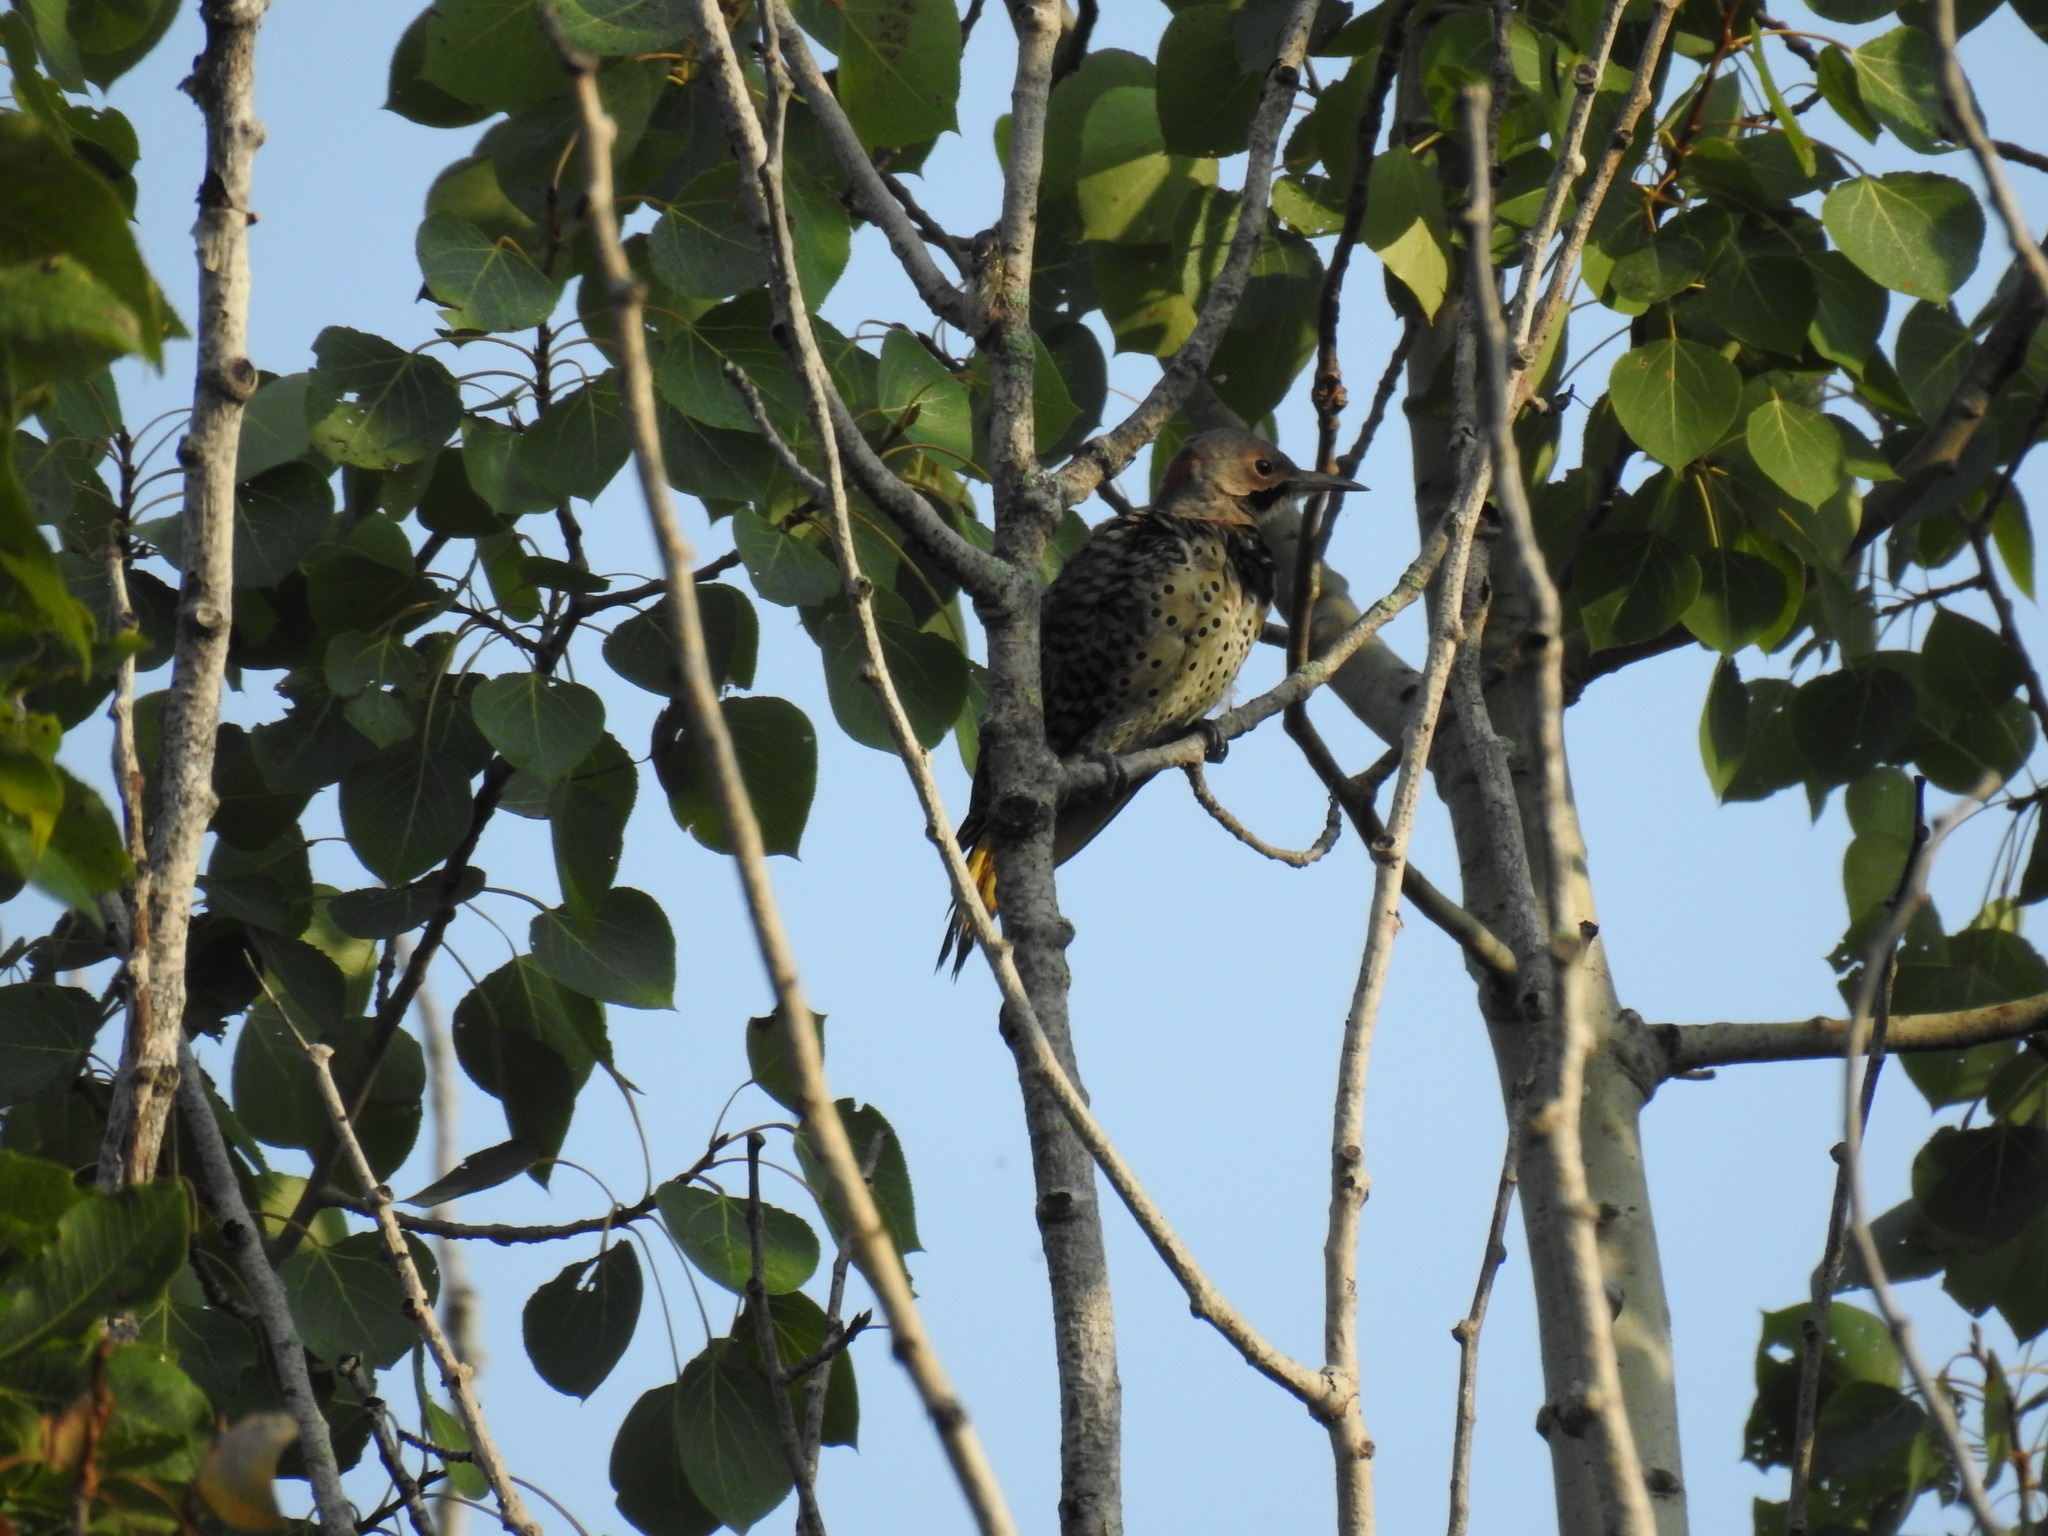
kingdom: Animalia
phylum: Chordata
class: Aves
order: Piciformes
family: Picidae
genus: Colaptes
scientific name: Colaptes auratus
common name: Northern flicker
